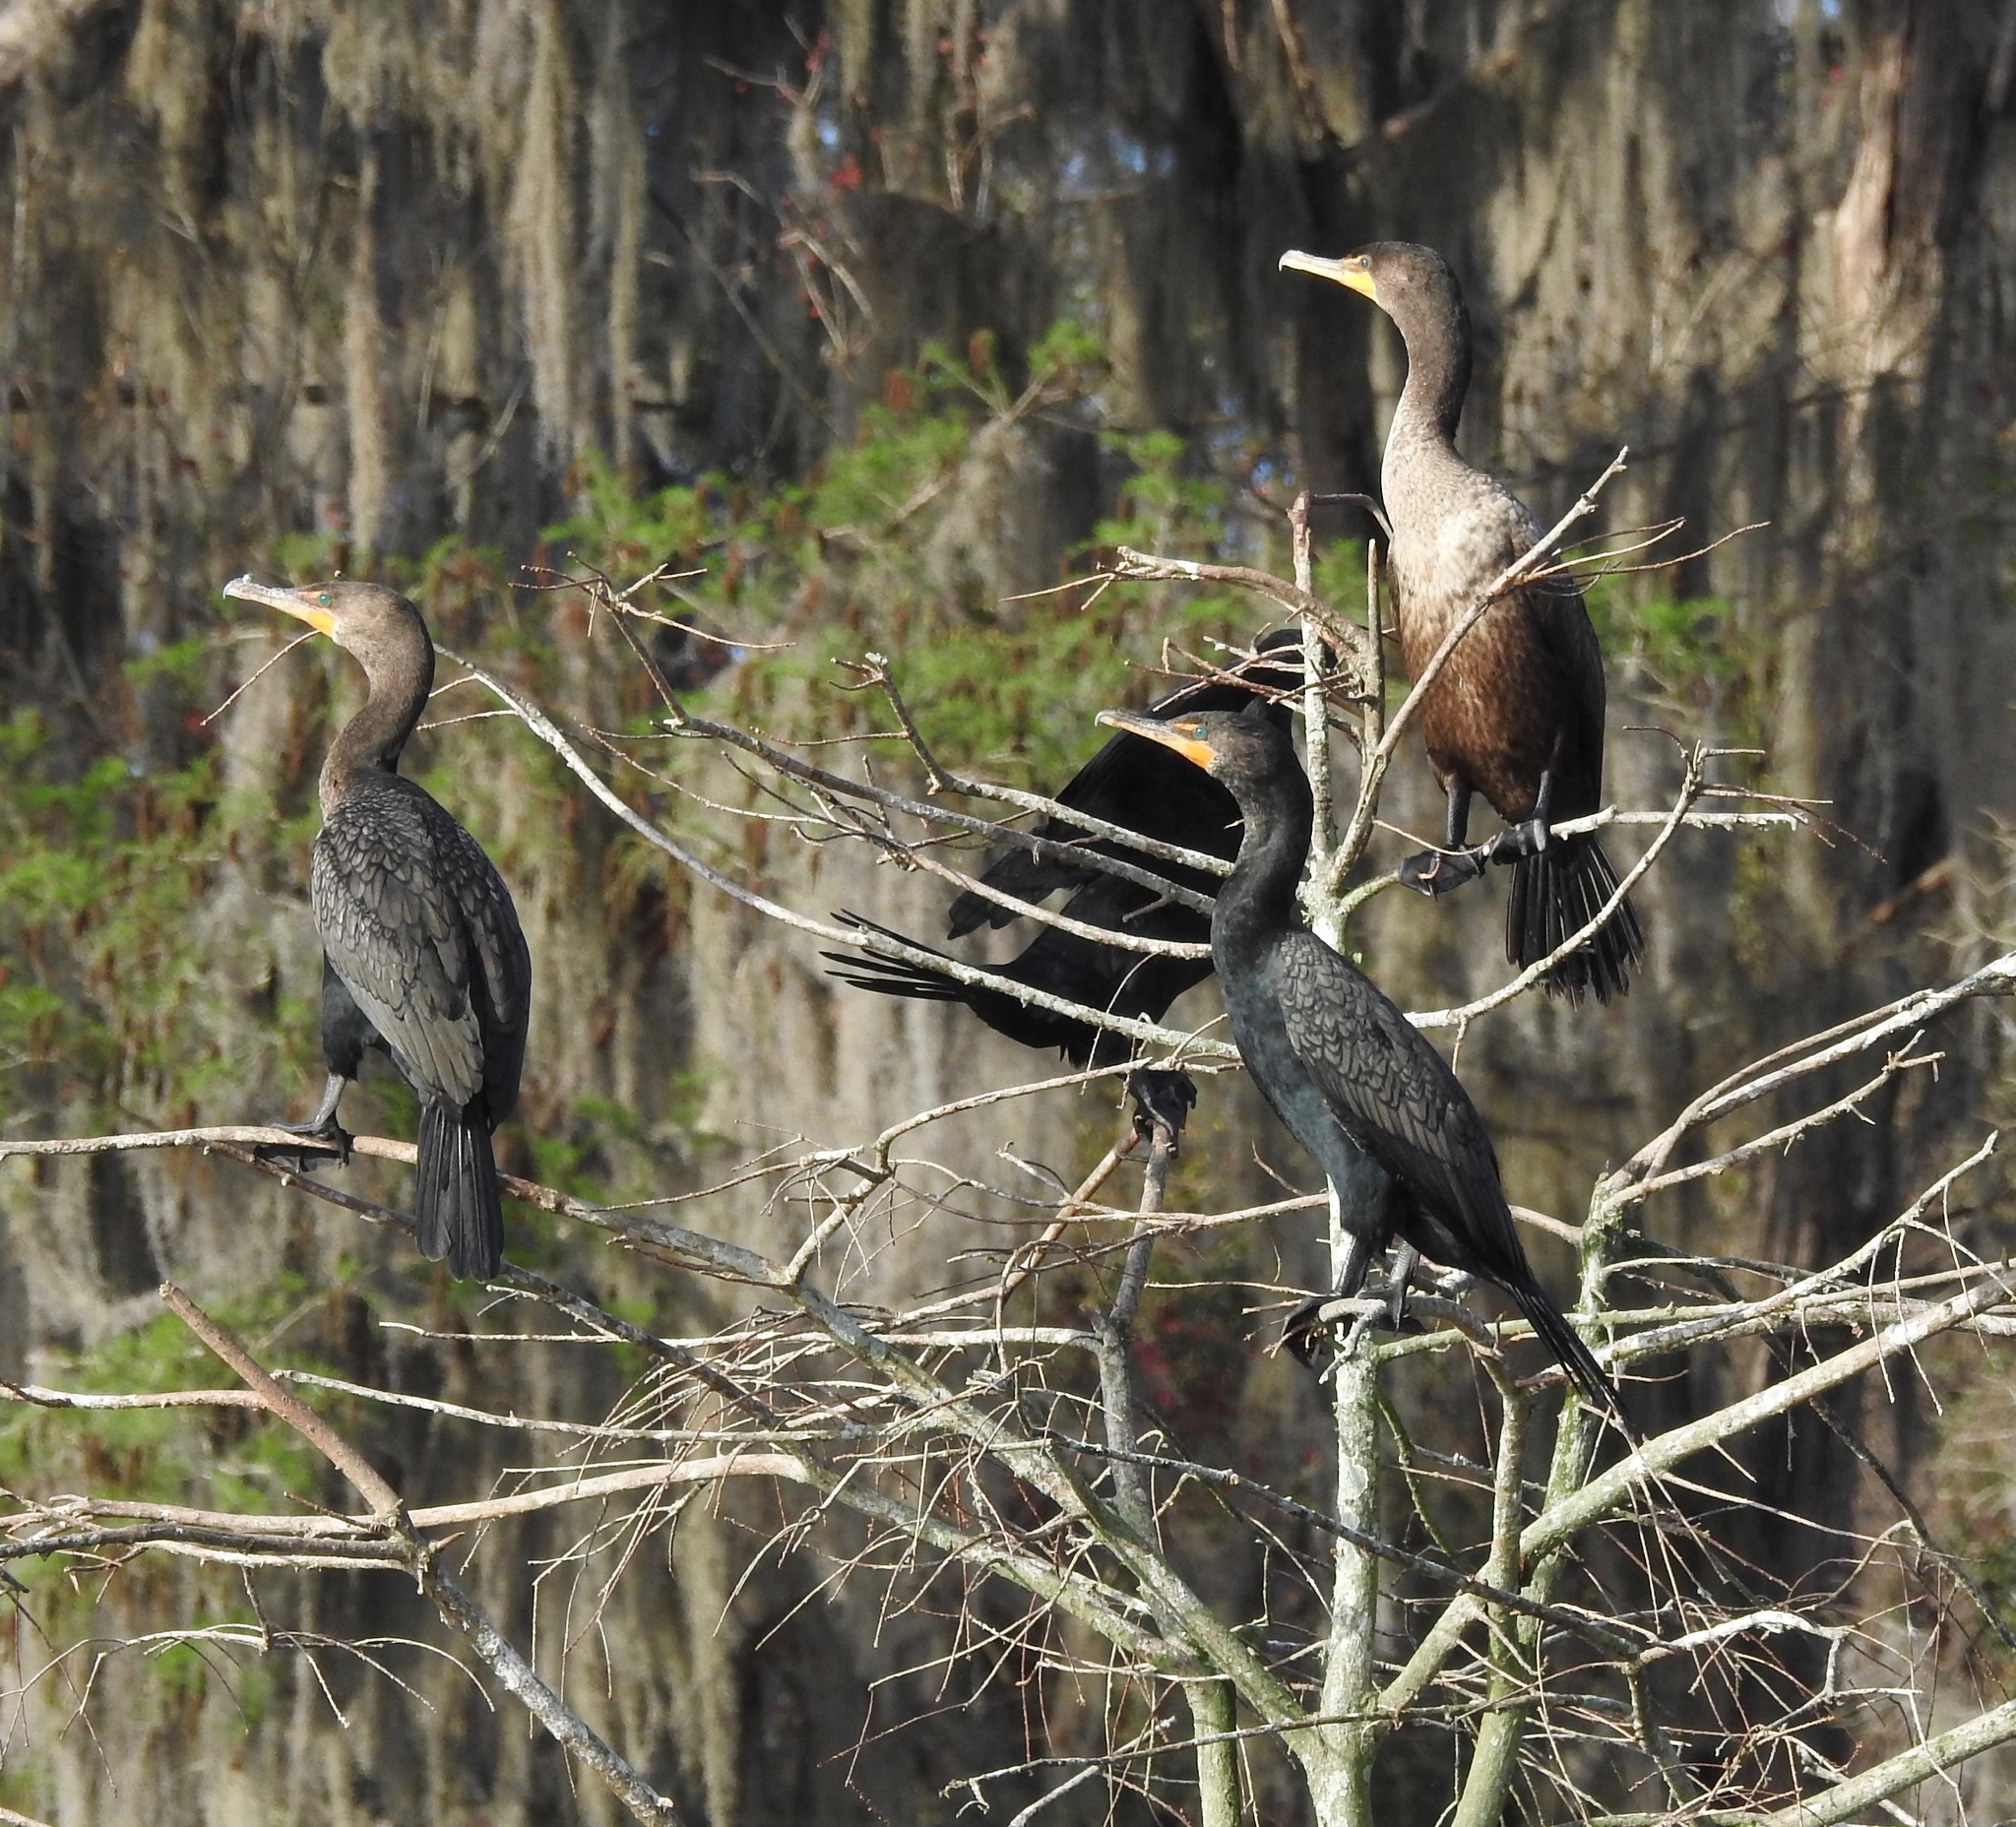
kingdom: Animalia
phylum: Chordata
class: Aves
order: Suliformes
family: Phalacrocoracidae
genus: Phalacrocorax
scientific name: Phalacrocorax auritus
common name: Double-crested cormorant
